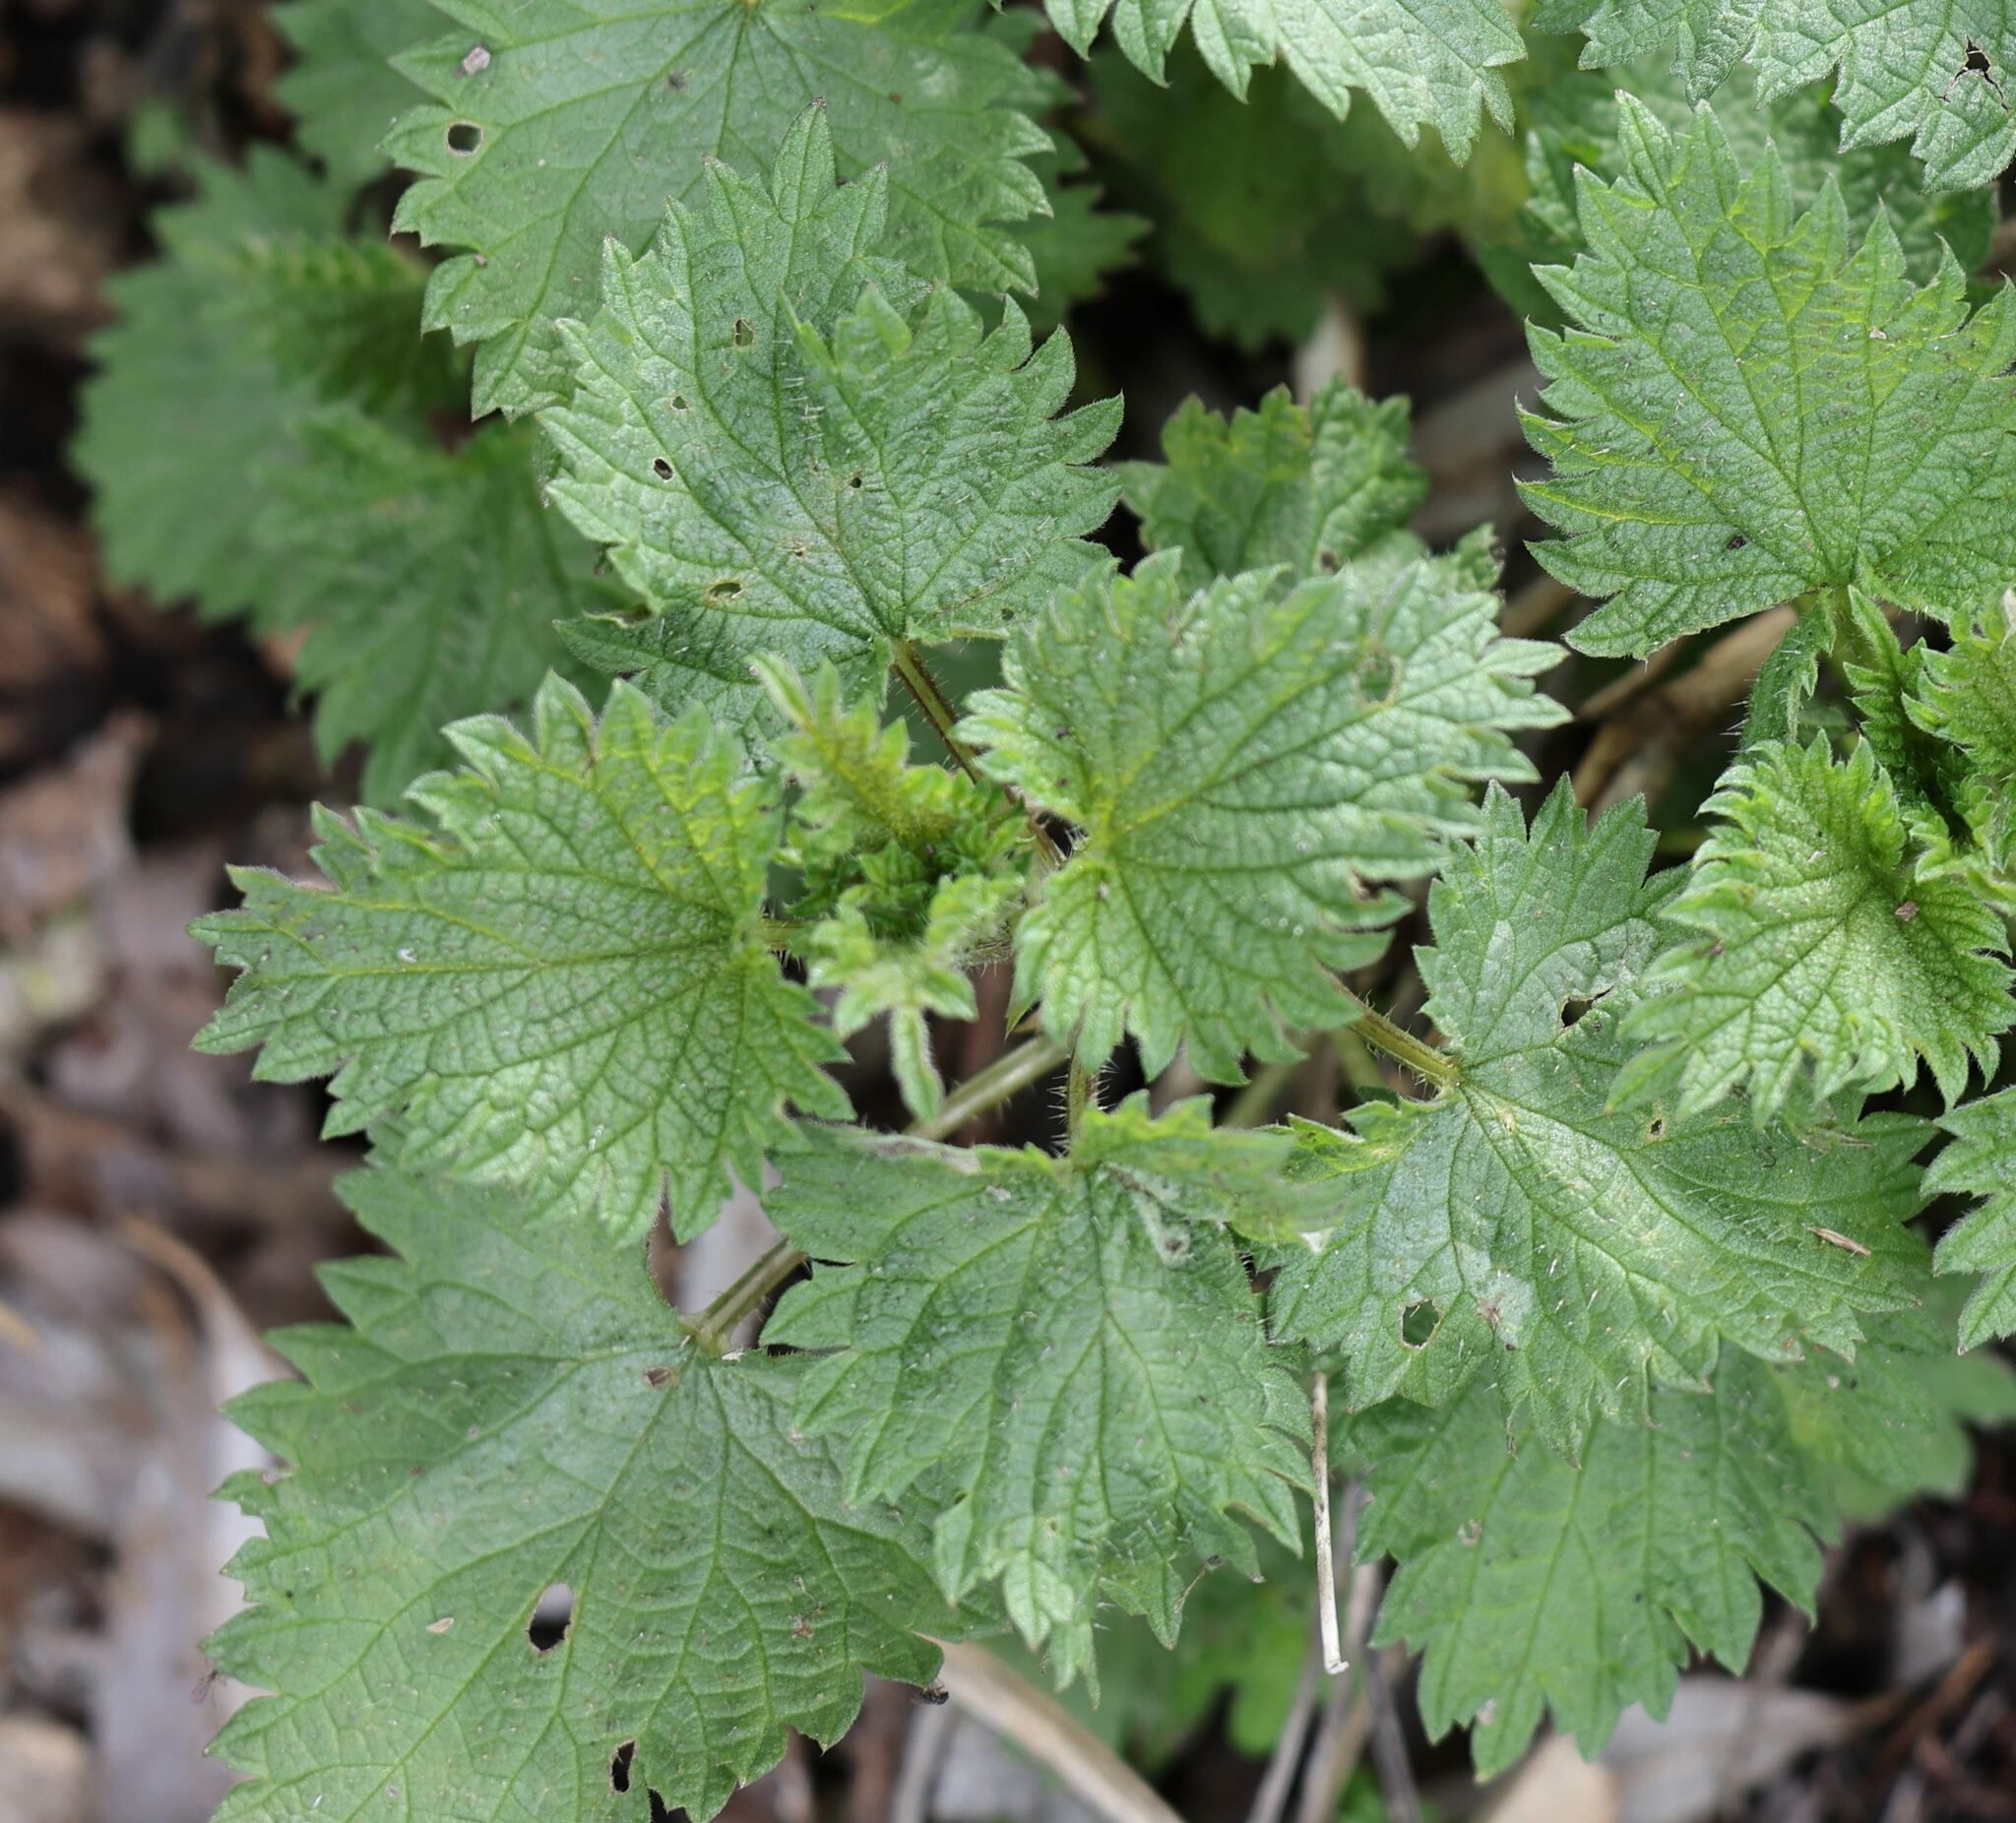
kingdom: Plantae
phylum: Tracheophyta
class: Magnoliopsida
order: Rosales
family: Urticaceae
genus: Urtica
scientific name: Urtica dioica
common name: Common nettle
